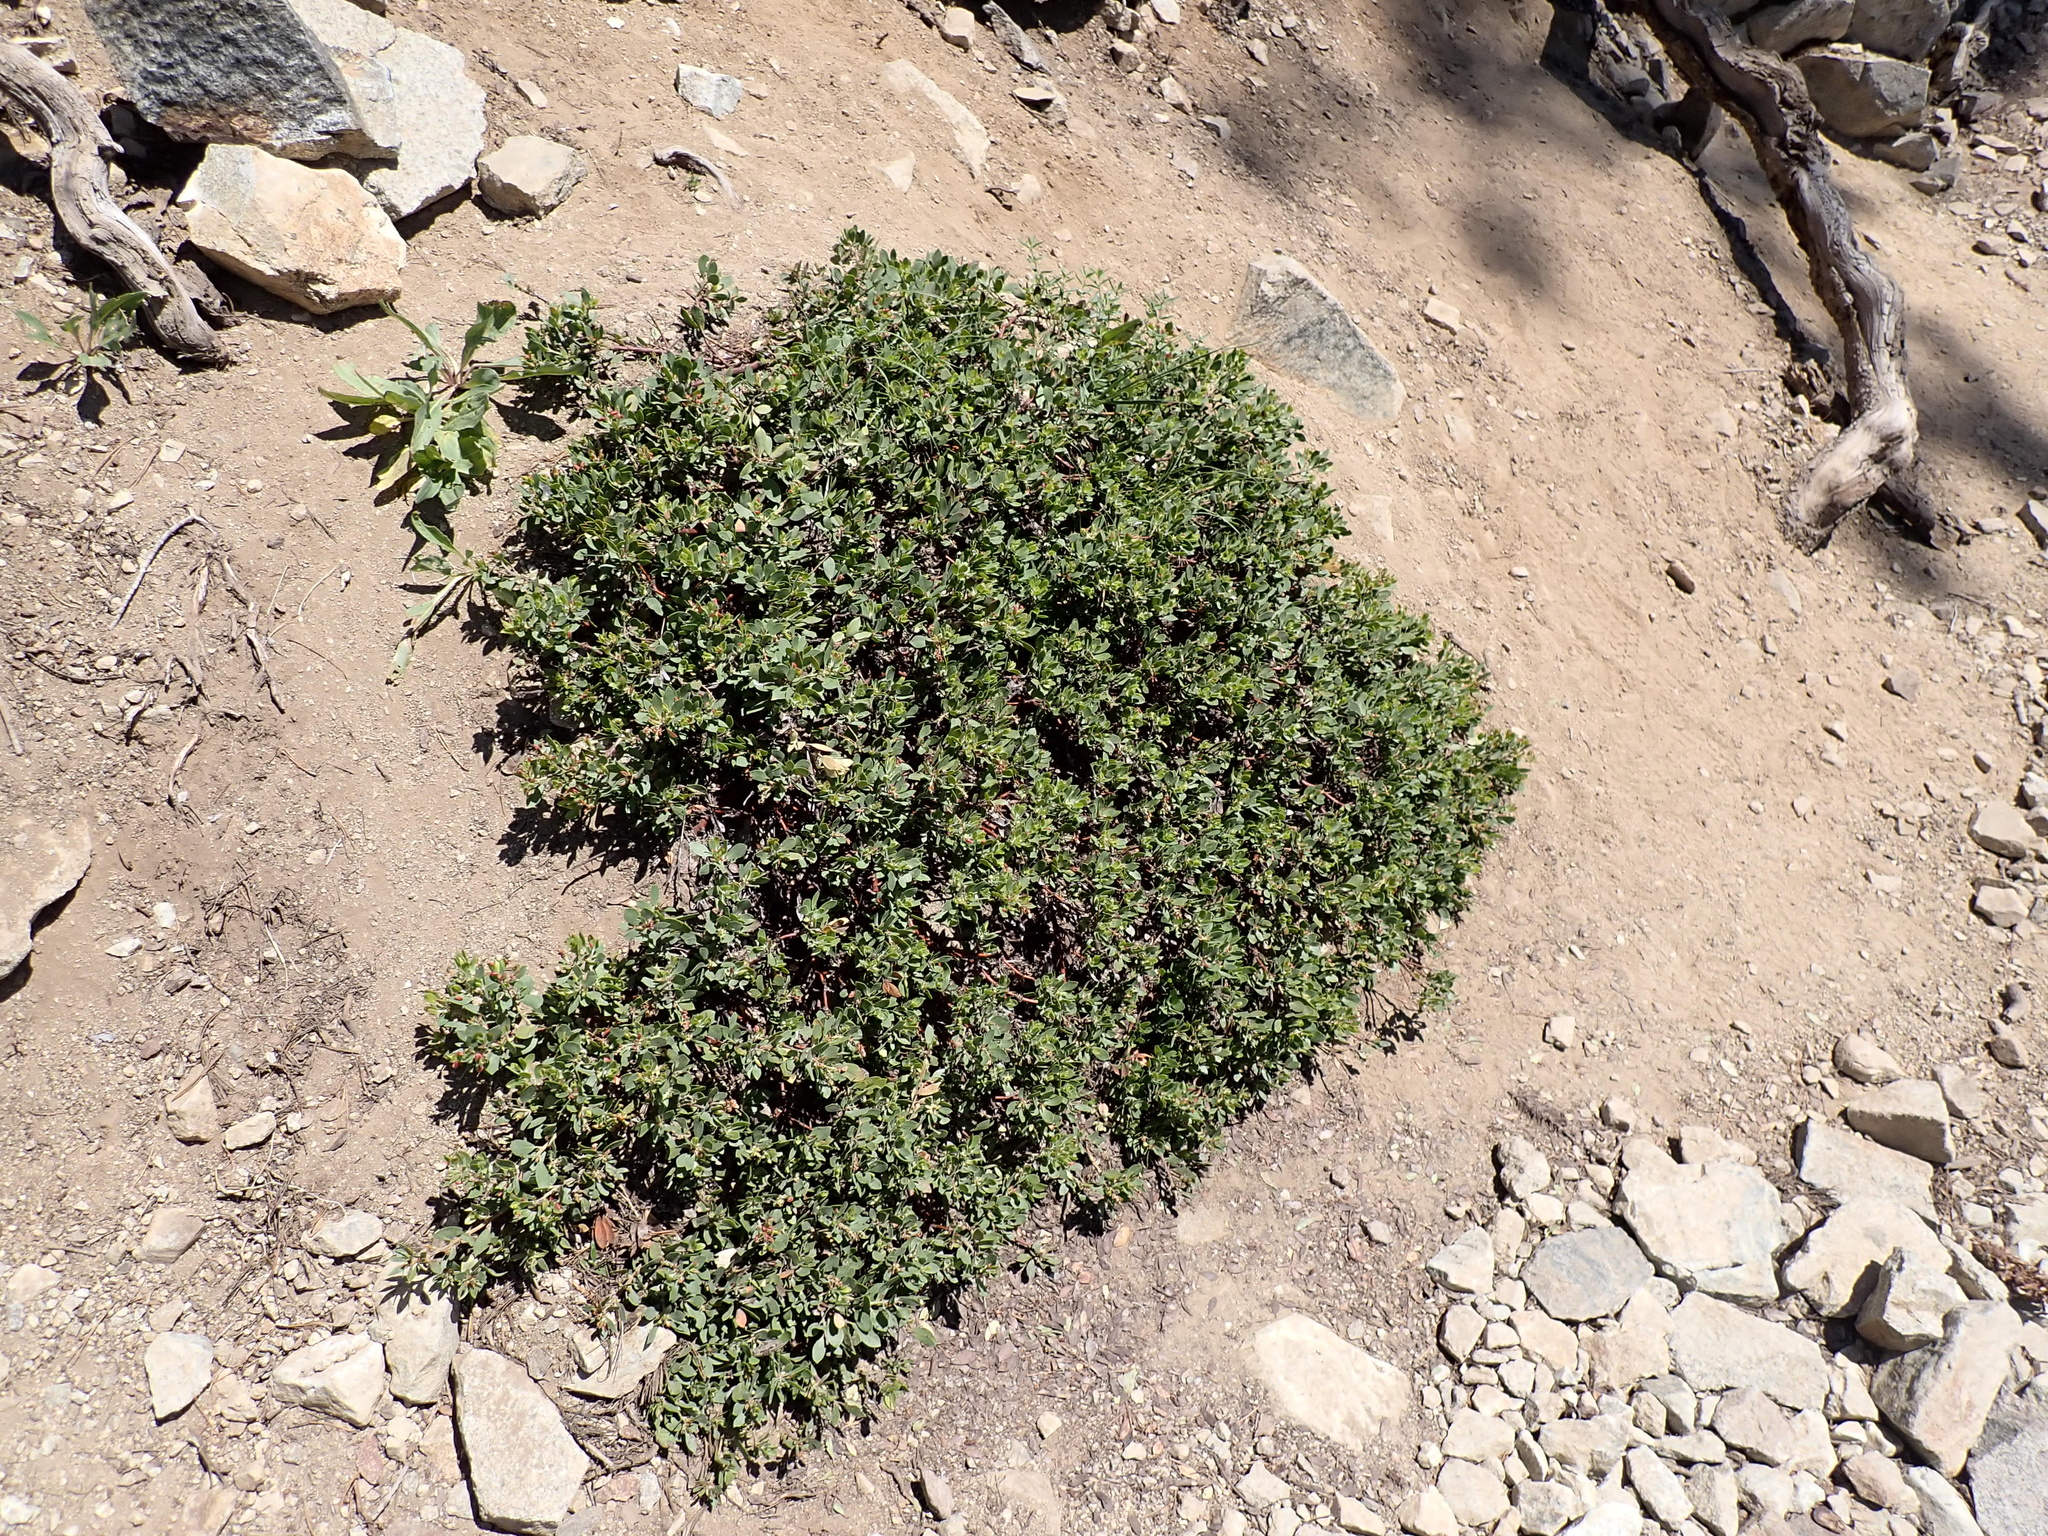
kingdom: Plantae
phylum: Tracheophyta
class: Magnoliopsida
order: Ericales
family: Ericaceae
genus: Arctostaphylos
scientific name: Arctostaphylos nevadensis
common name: Pinemat manzanita
